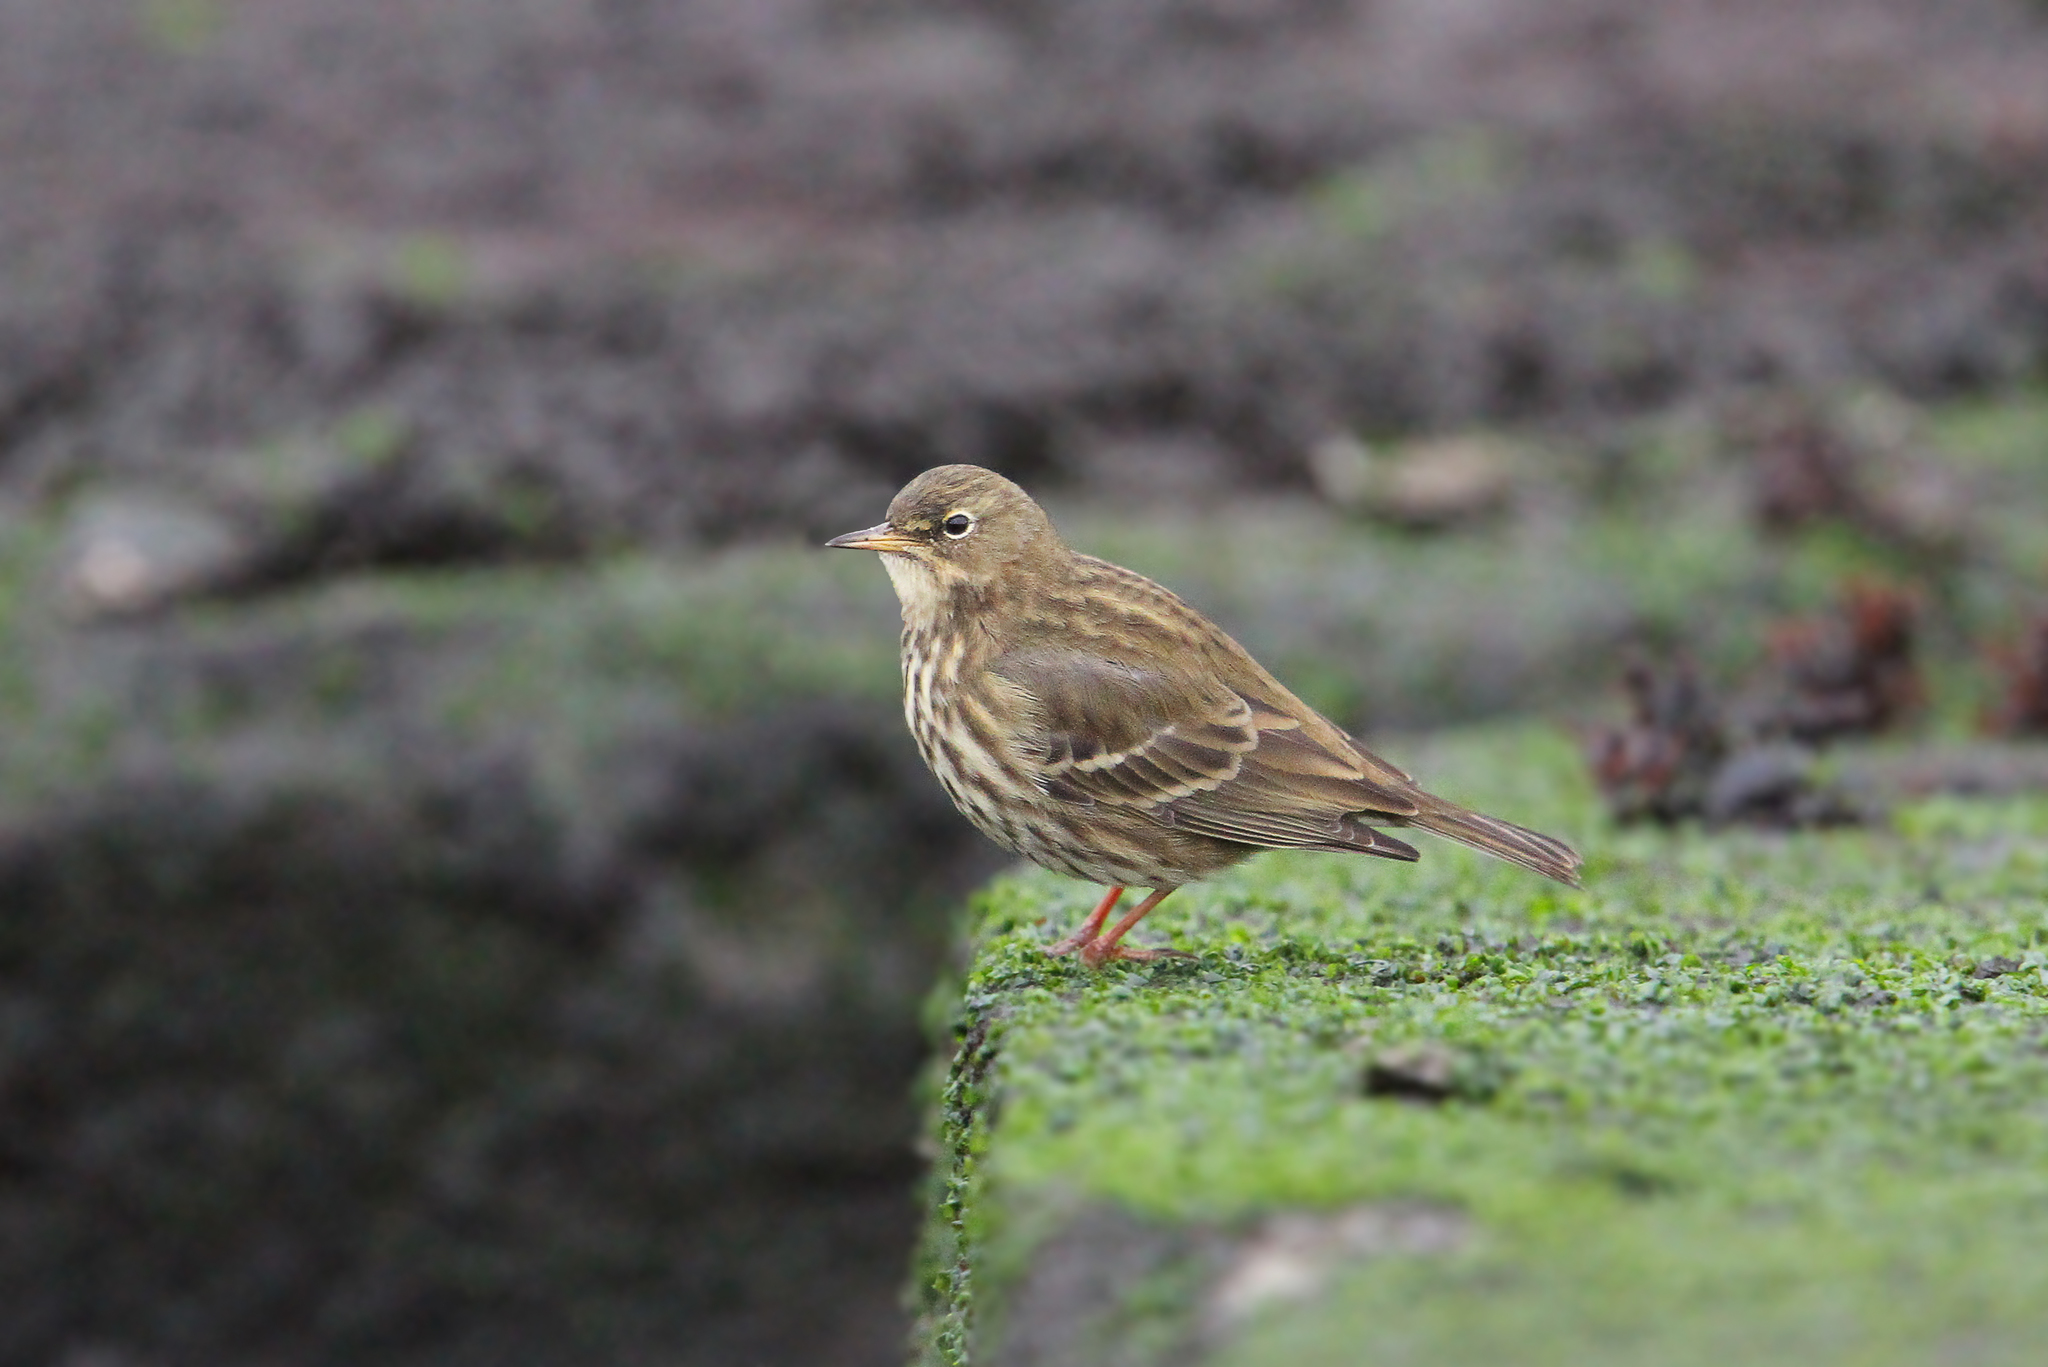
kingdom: Animalia
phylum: Chordata
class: Aves
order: Passeriformes
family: Motacillidae
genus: Anthus
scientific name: Anthus petrosus
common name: Eurasian rock pipit
